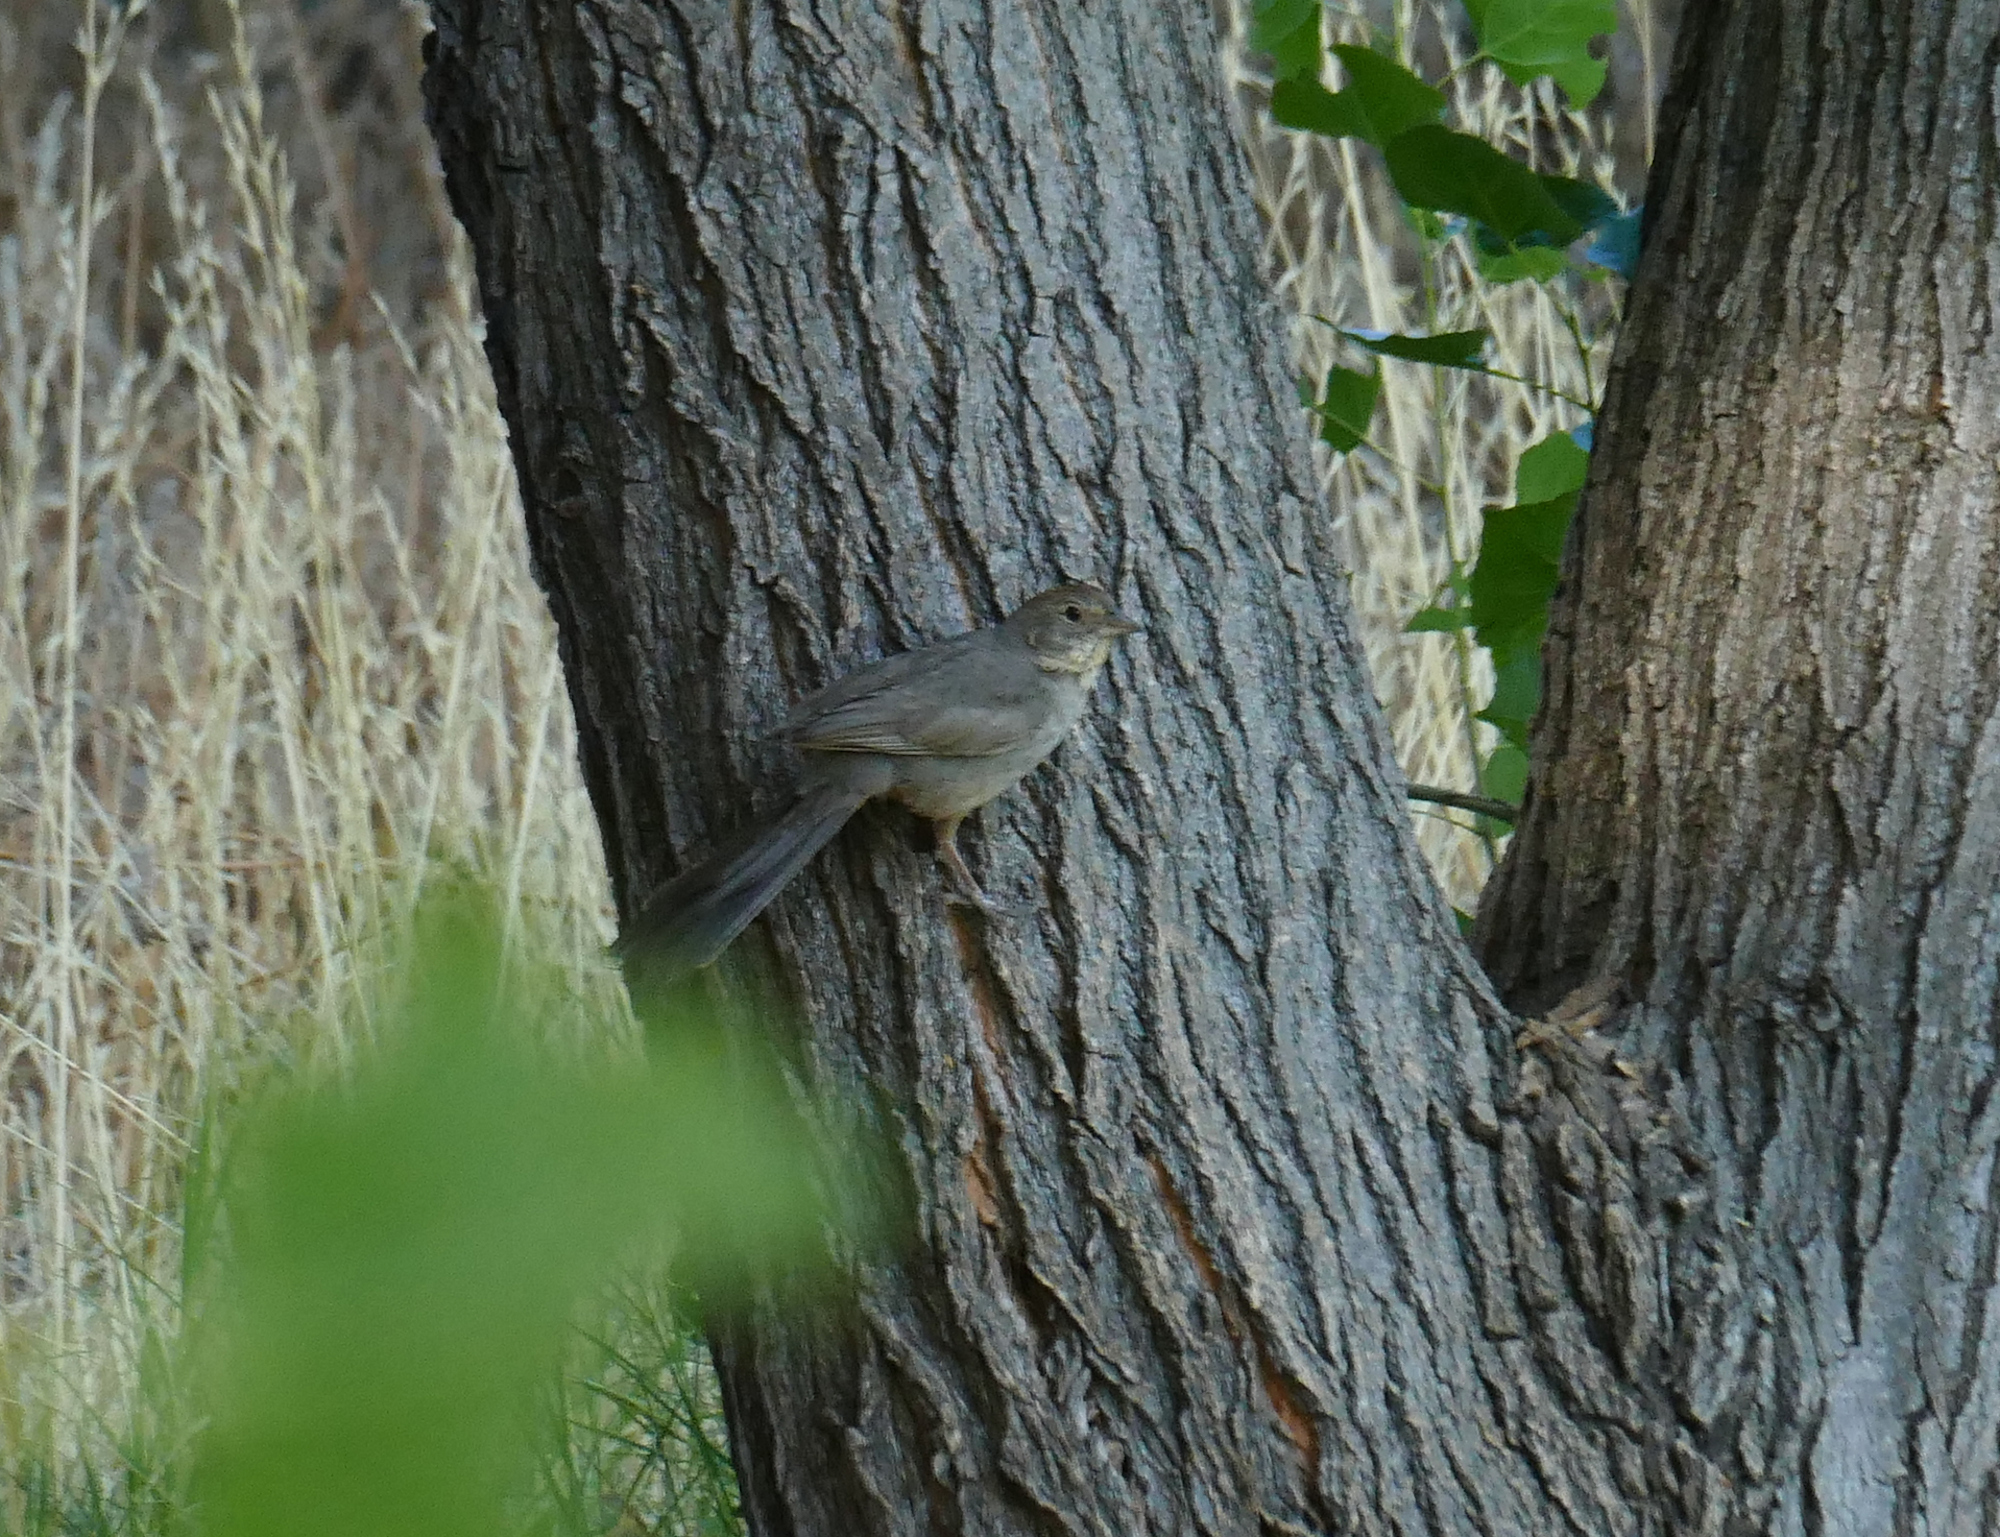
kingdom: Animalia
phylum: Chordata
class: Aves
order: Passeriformes
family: Passerellidae
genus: Melozone
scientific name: Melozone fusca
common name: Canyon towhee
